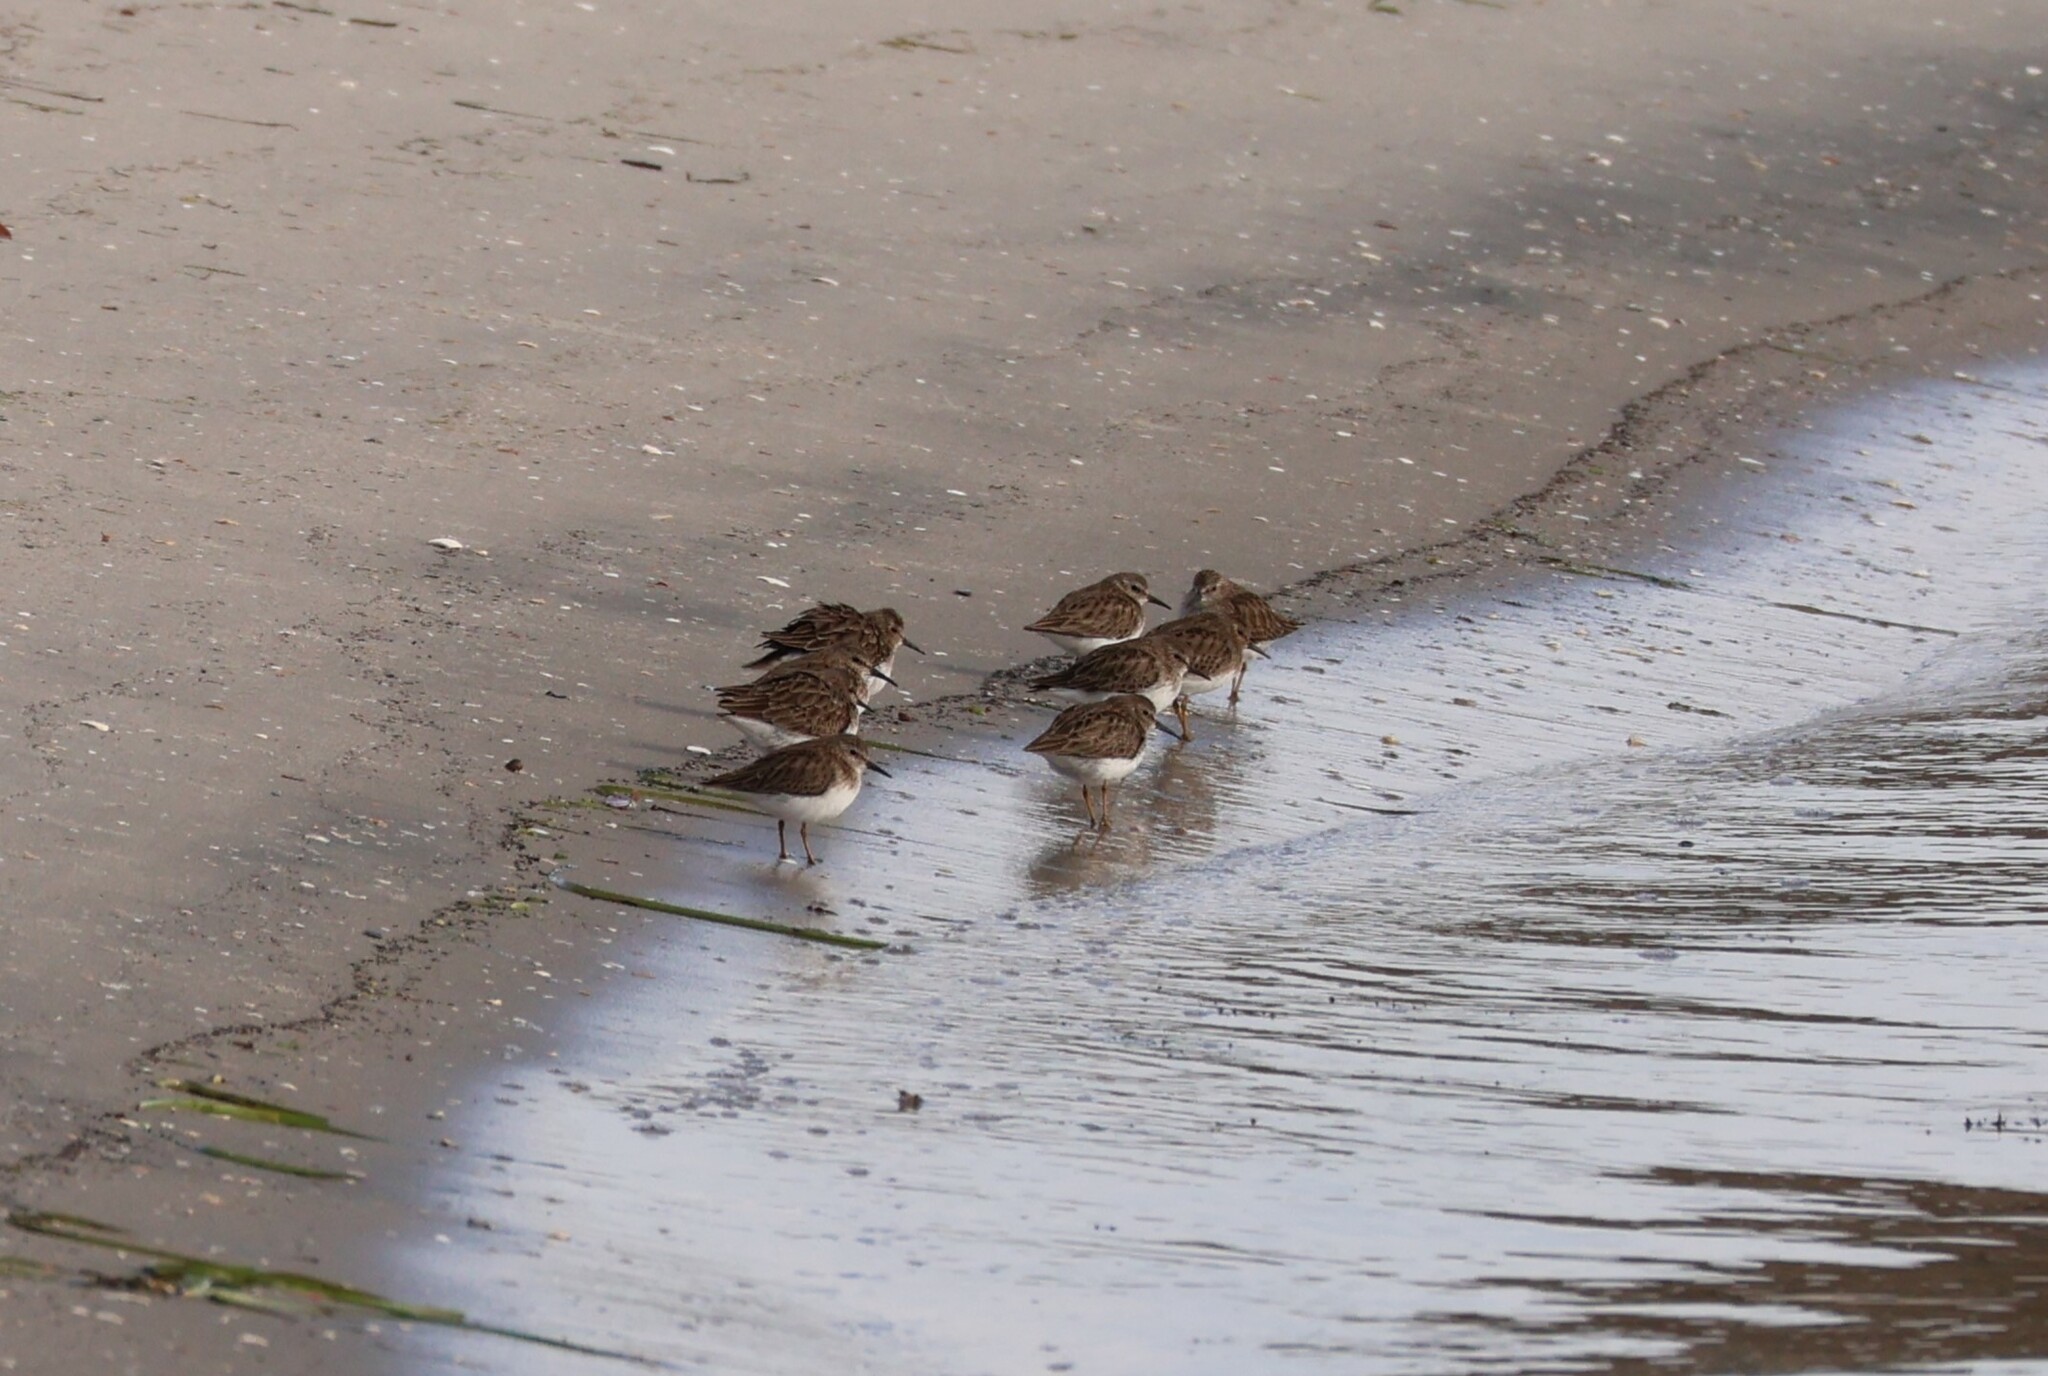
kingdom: Animalia
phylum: Chordata
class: Aves
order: Charadriiformes
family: Scolopacidae
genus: Calidris
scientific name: Calidris minutilla
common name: Least sandpiper
